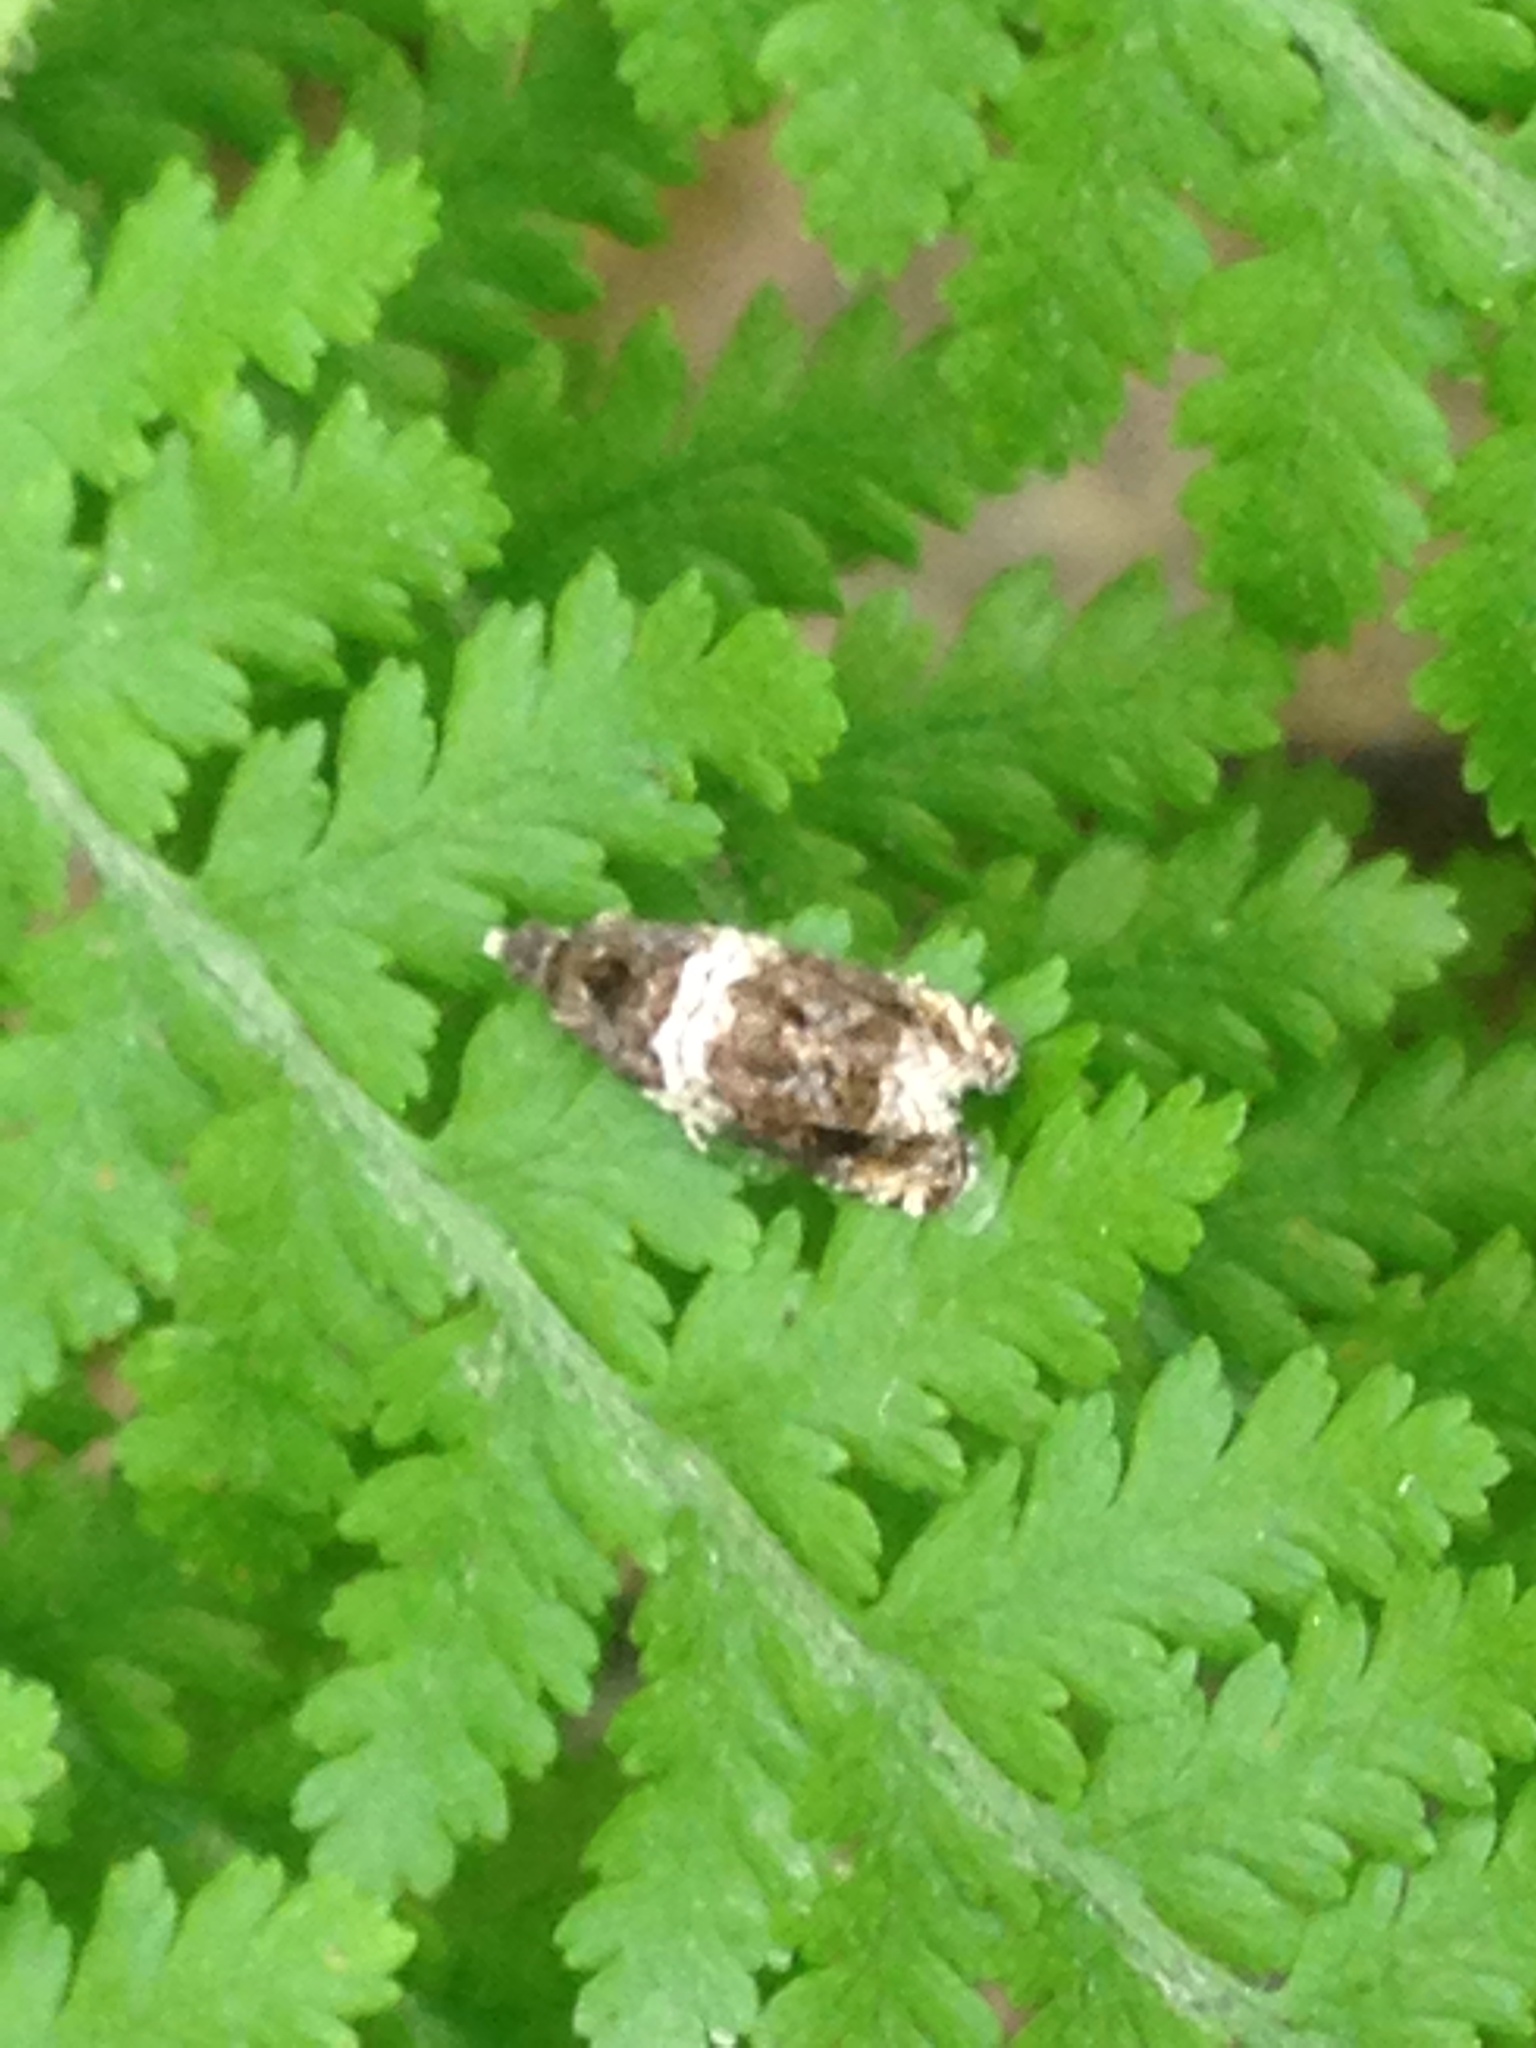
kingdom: Animalia
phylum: Arthropoda
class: Insecta
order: Lepidoptera
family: Tortricidae
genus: Olethreutes
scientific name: Olethreutes fasciatana
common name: Banded olethreutes moth
